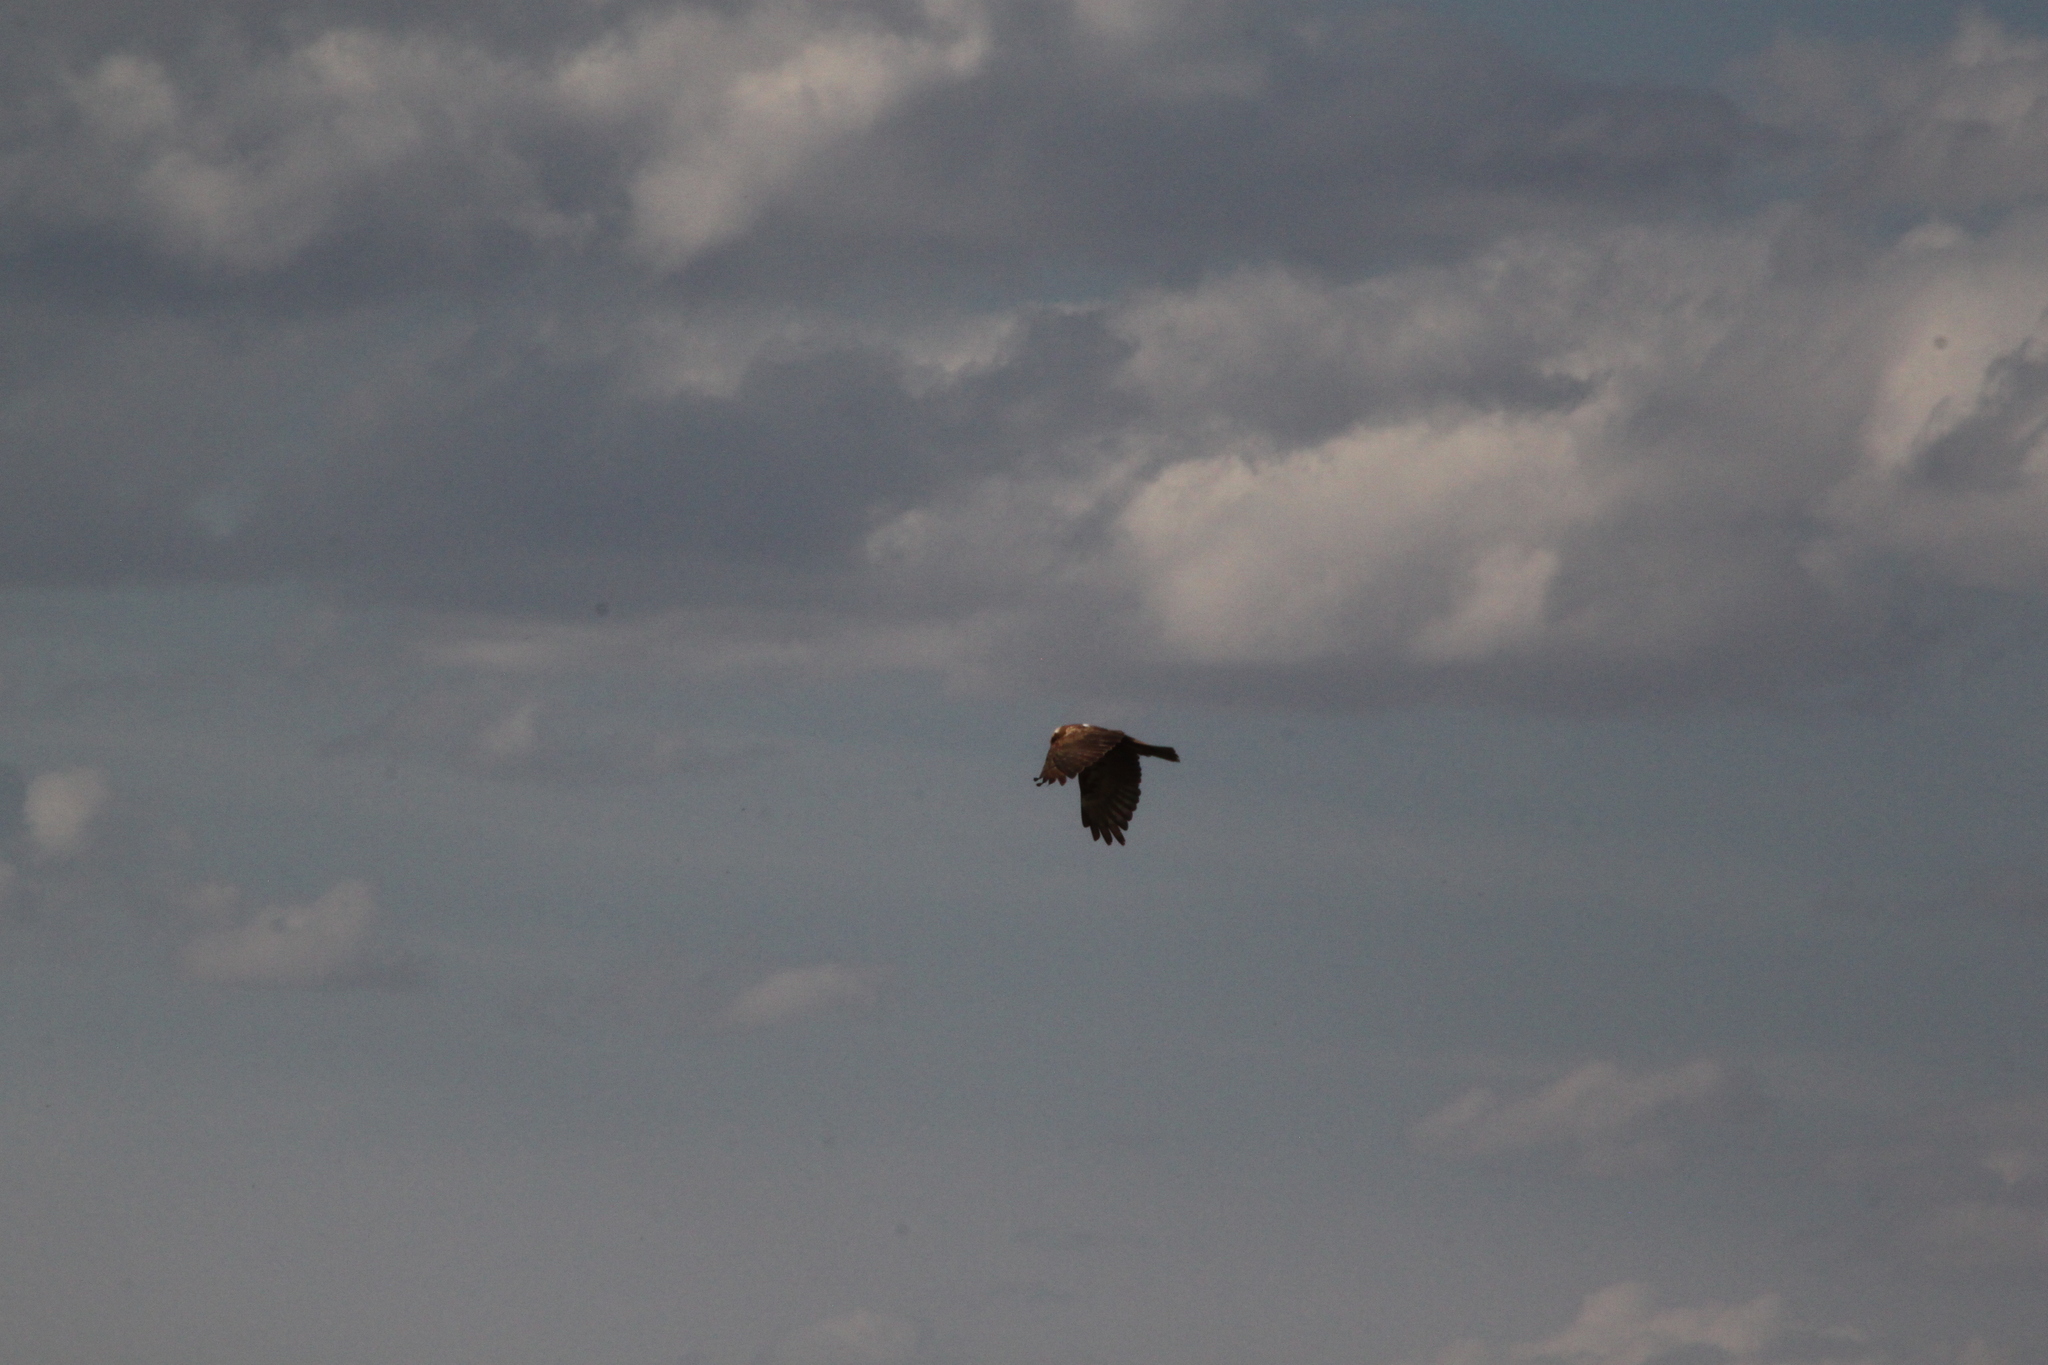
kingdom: Animalia
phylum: Chordata
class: Aves
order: Accipitriformes
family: Accipitridae
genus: Circus
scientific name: Circus aeruginosus
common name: Western marsh harrier
